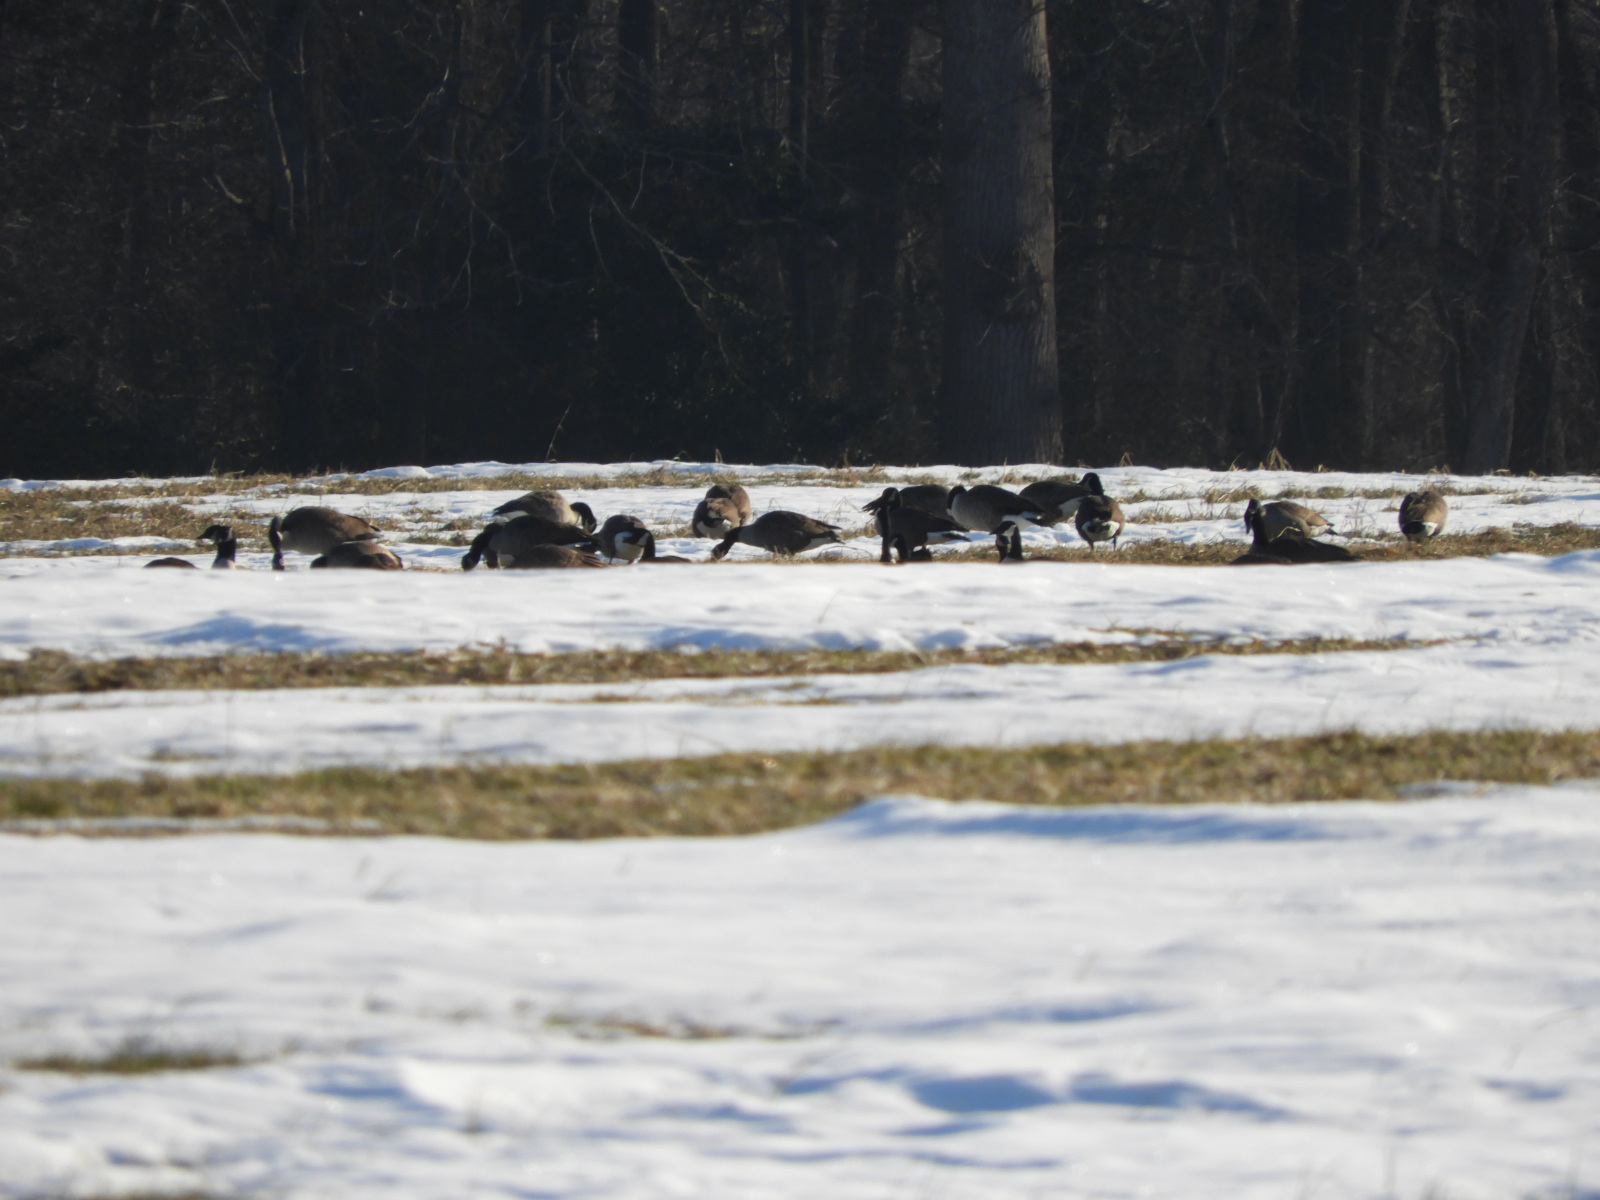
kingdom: Animalia
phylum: Chordata
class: Aves
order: Anseriformes
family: Anatidae
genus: Branta
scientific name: Branta canadensis
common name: Canada goose
